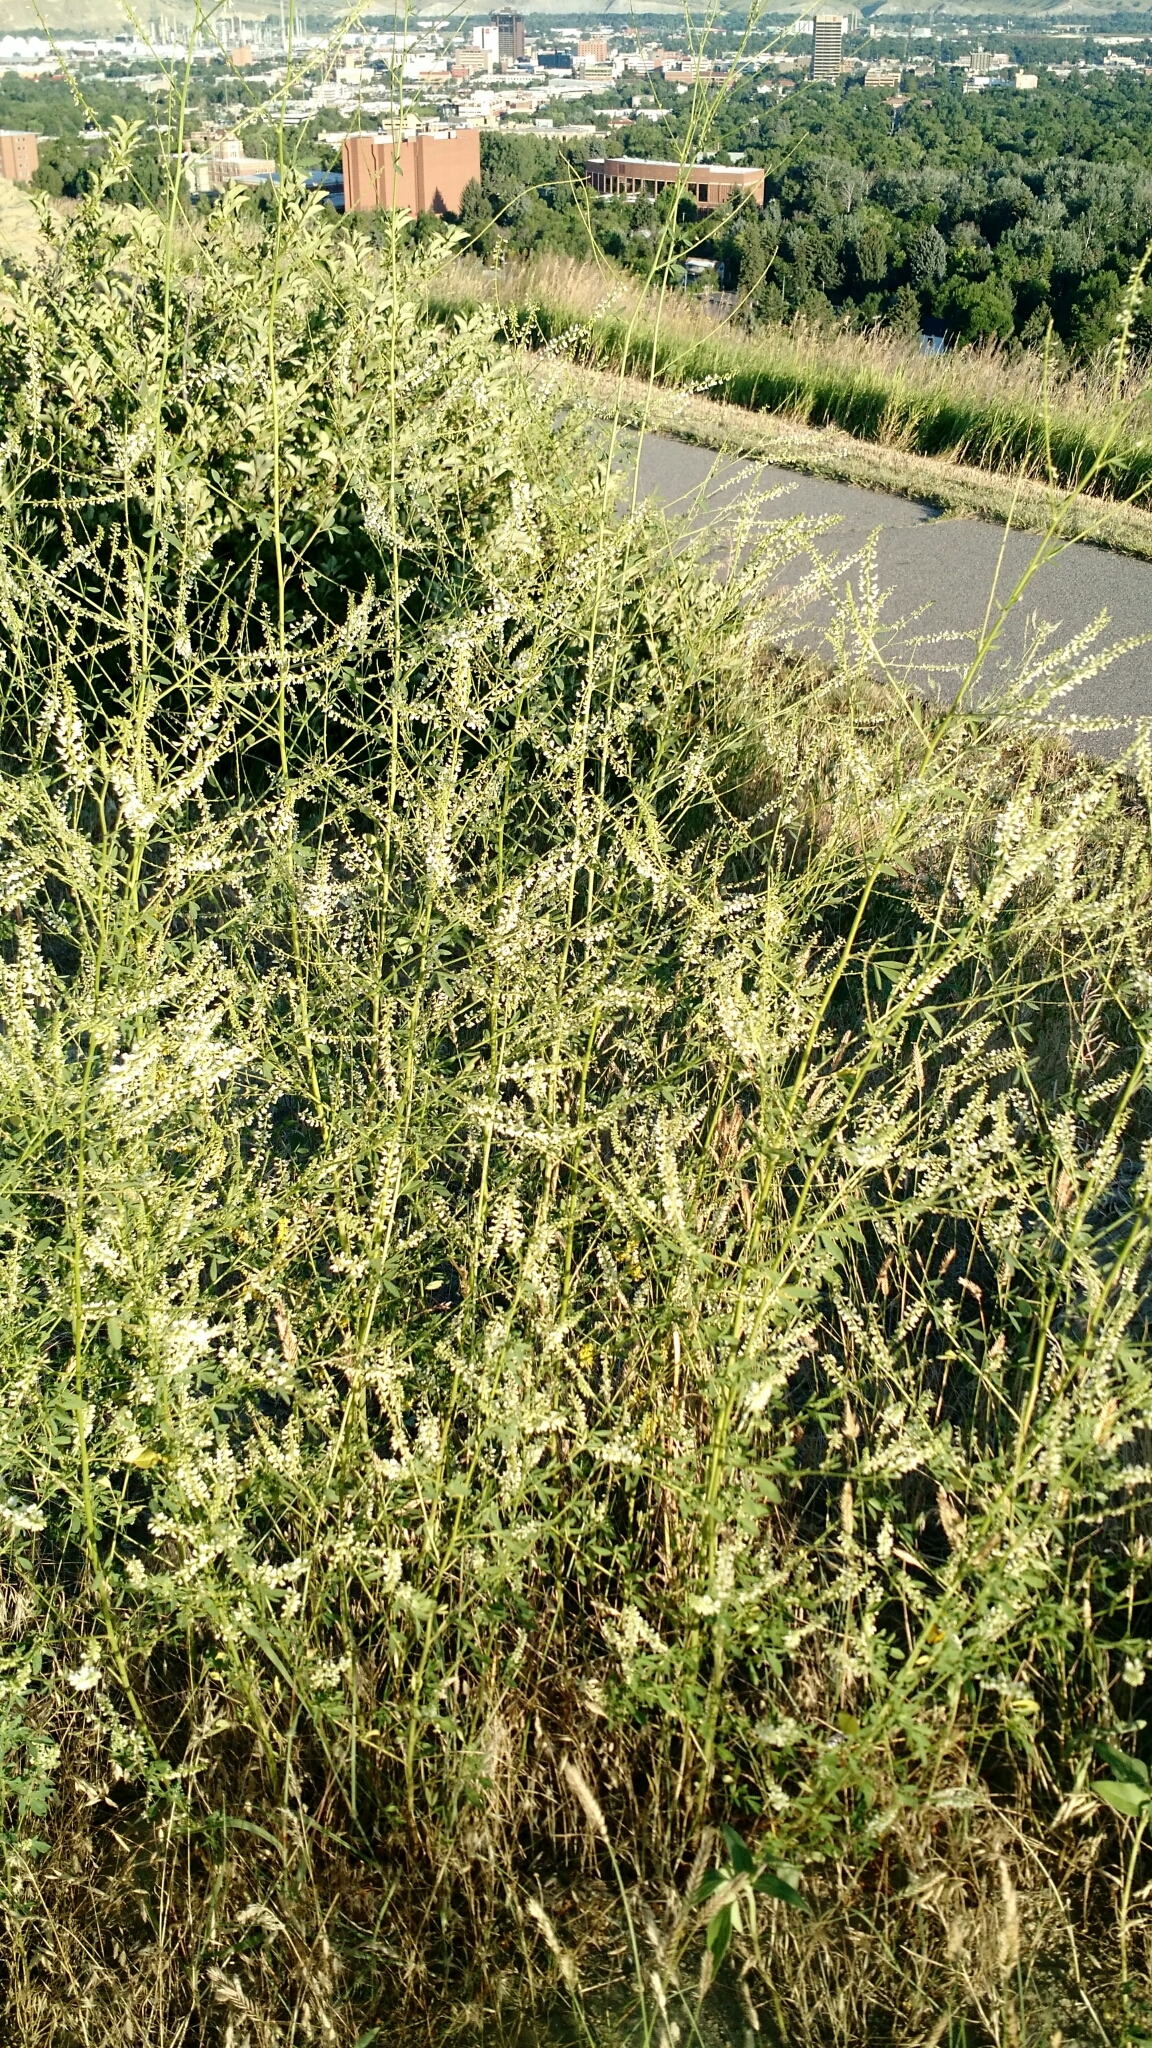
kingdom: Plantae
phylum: Tracheophyta
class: Magnoliopsida
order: Fabales
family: Fabaceae
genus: Melilotus
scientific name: Melilotus albus
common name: White melilot
